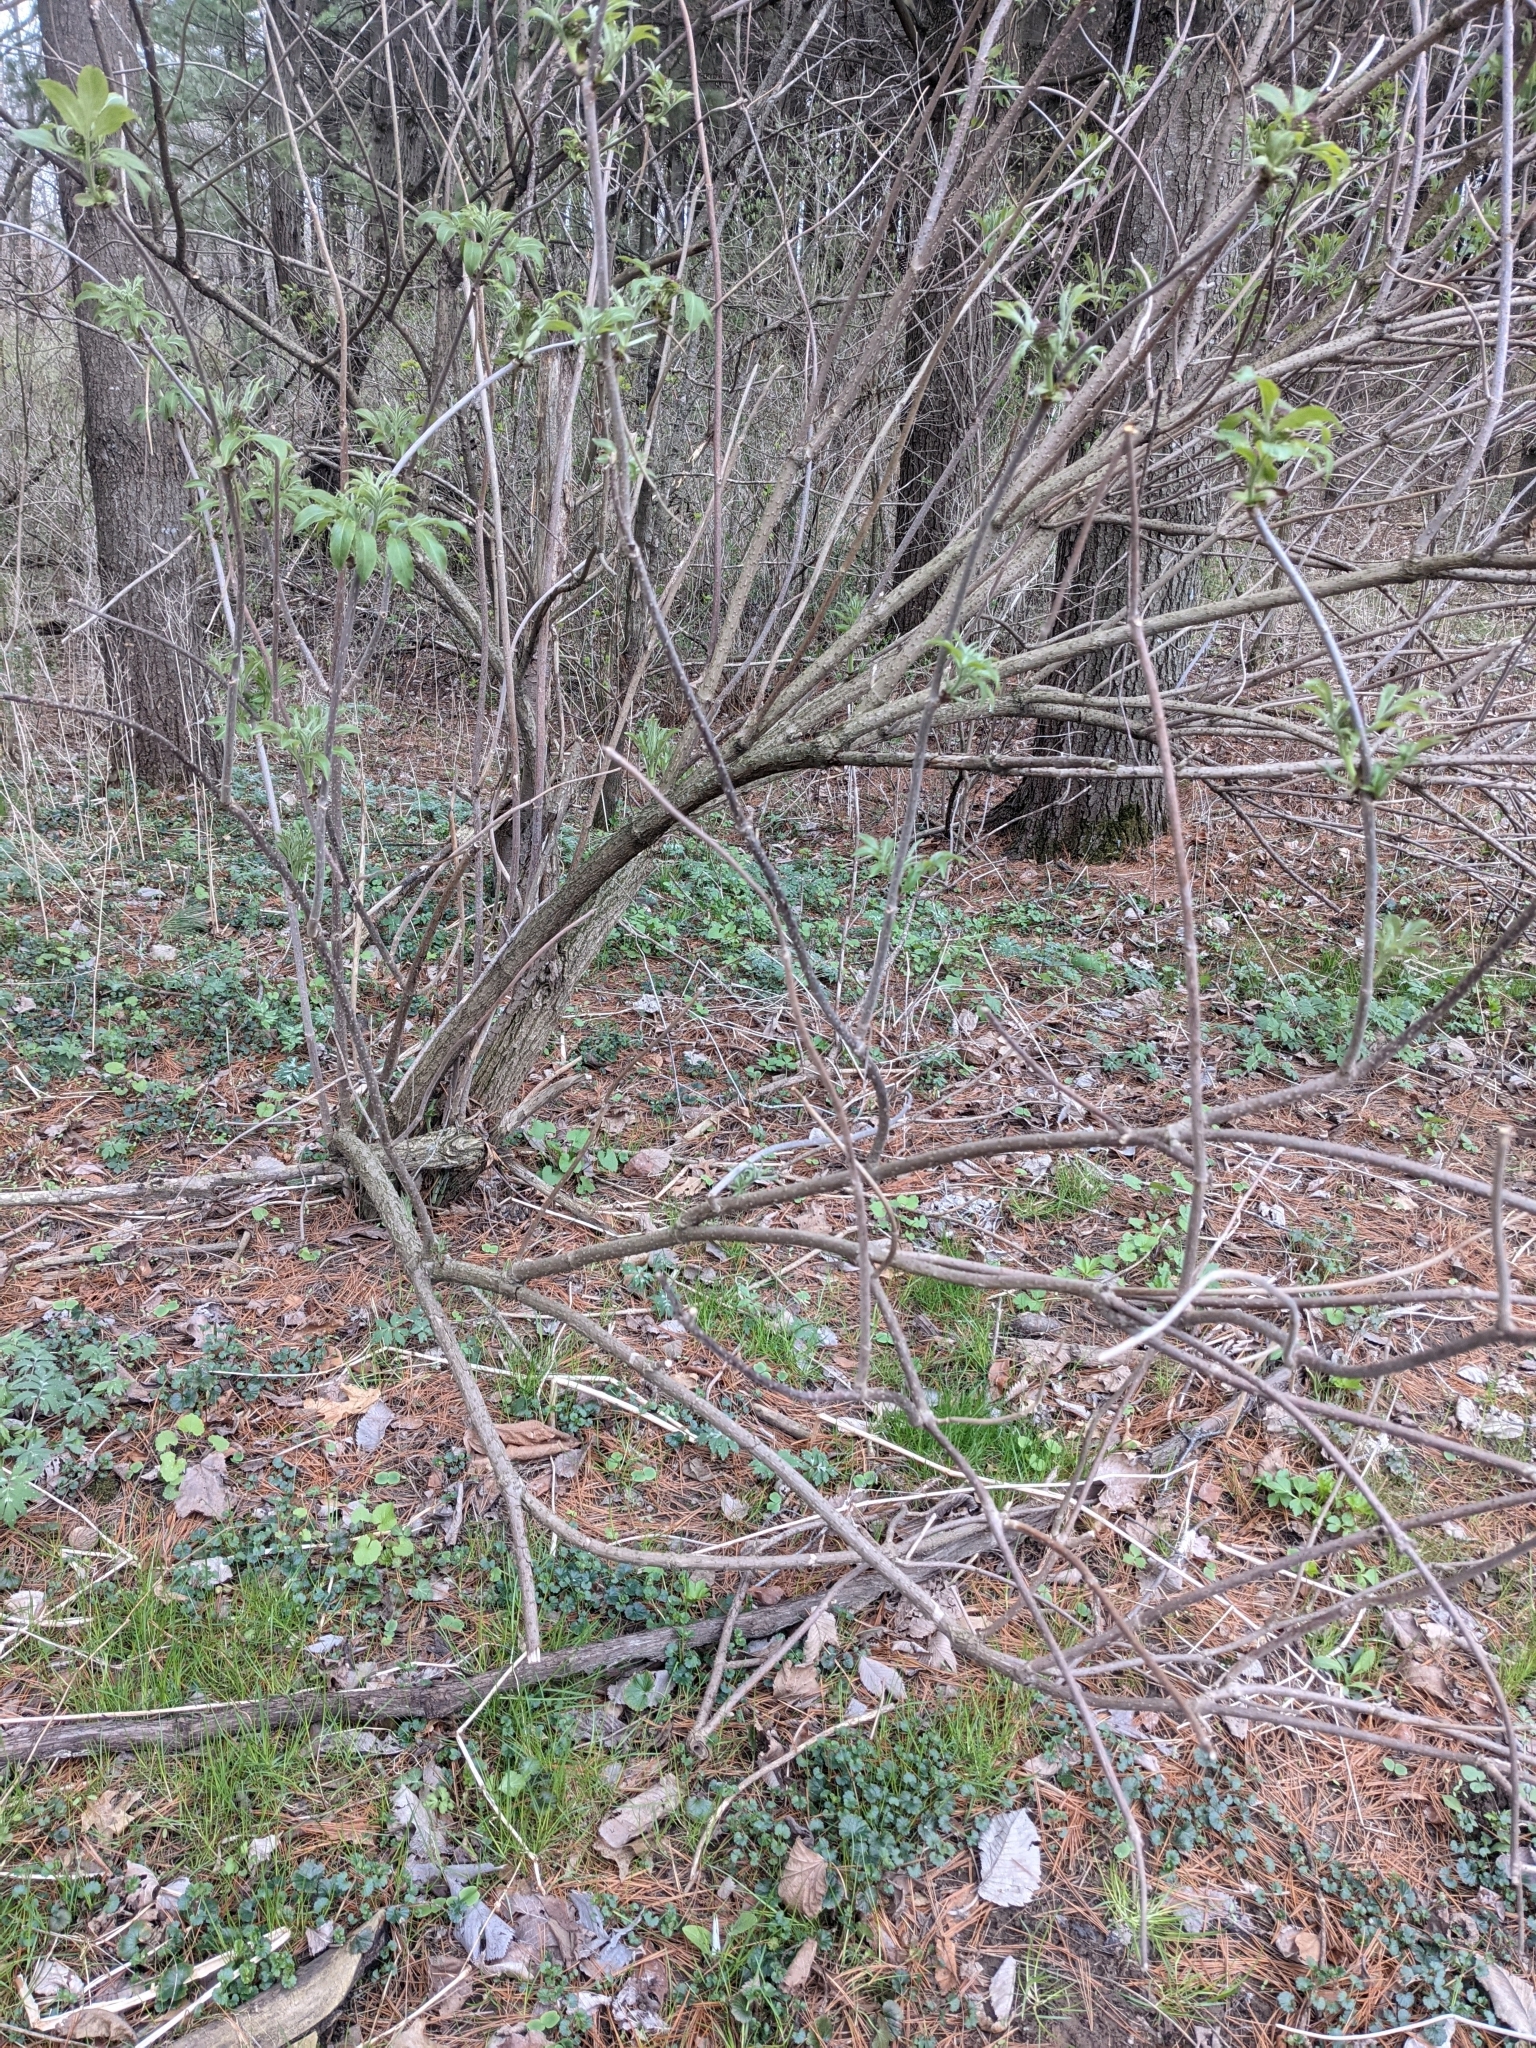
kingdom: Plantae
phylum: Tracheophyta
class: Magnoliopsida
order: Dipsacales
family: Viburnaceae
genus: Sambucus
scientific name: Sambucus racemosa
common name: Red-berried elder
